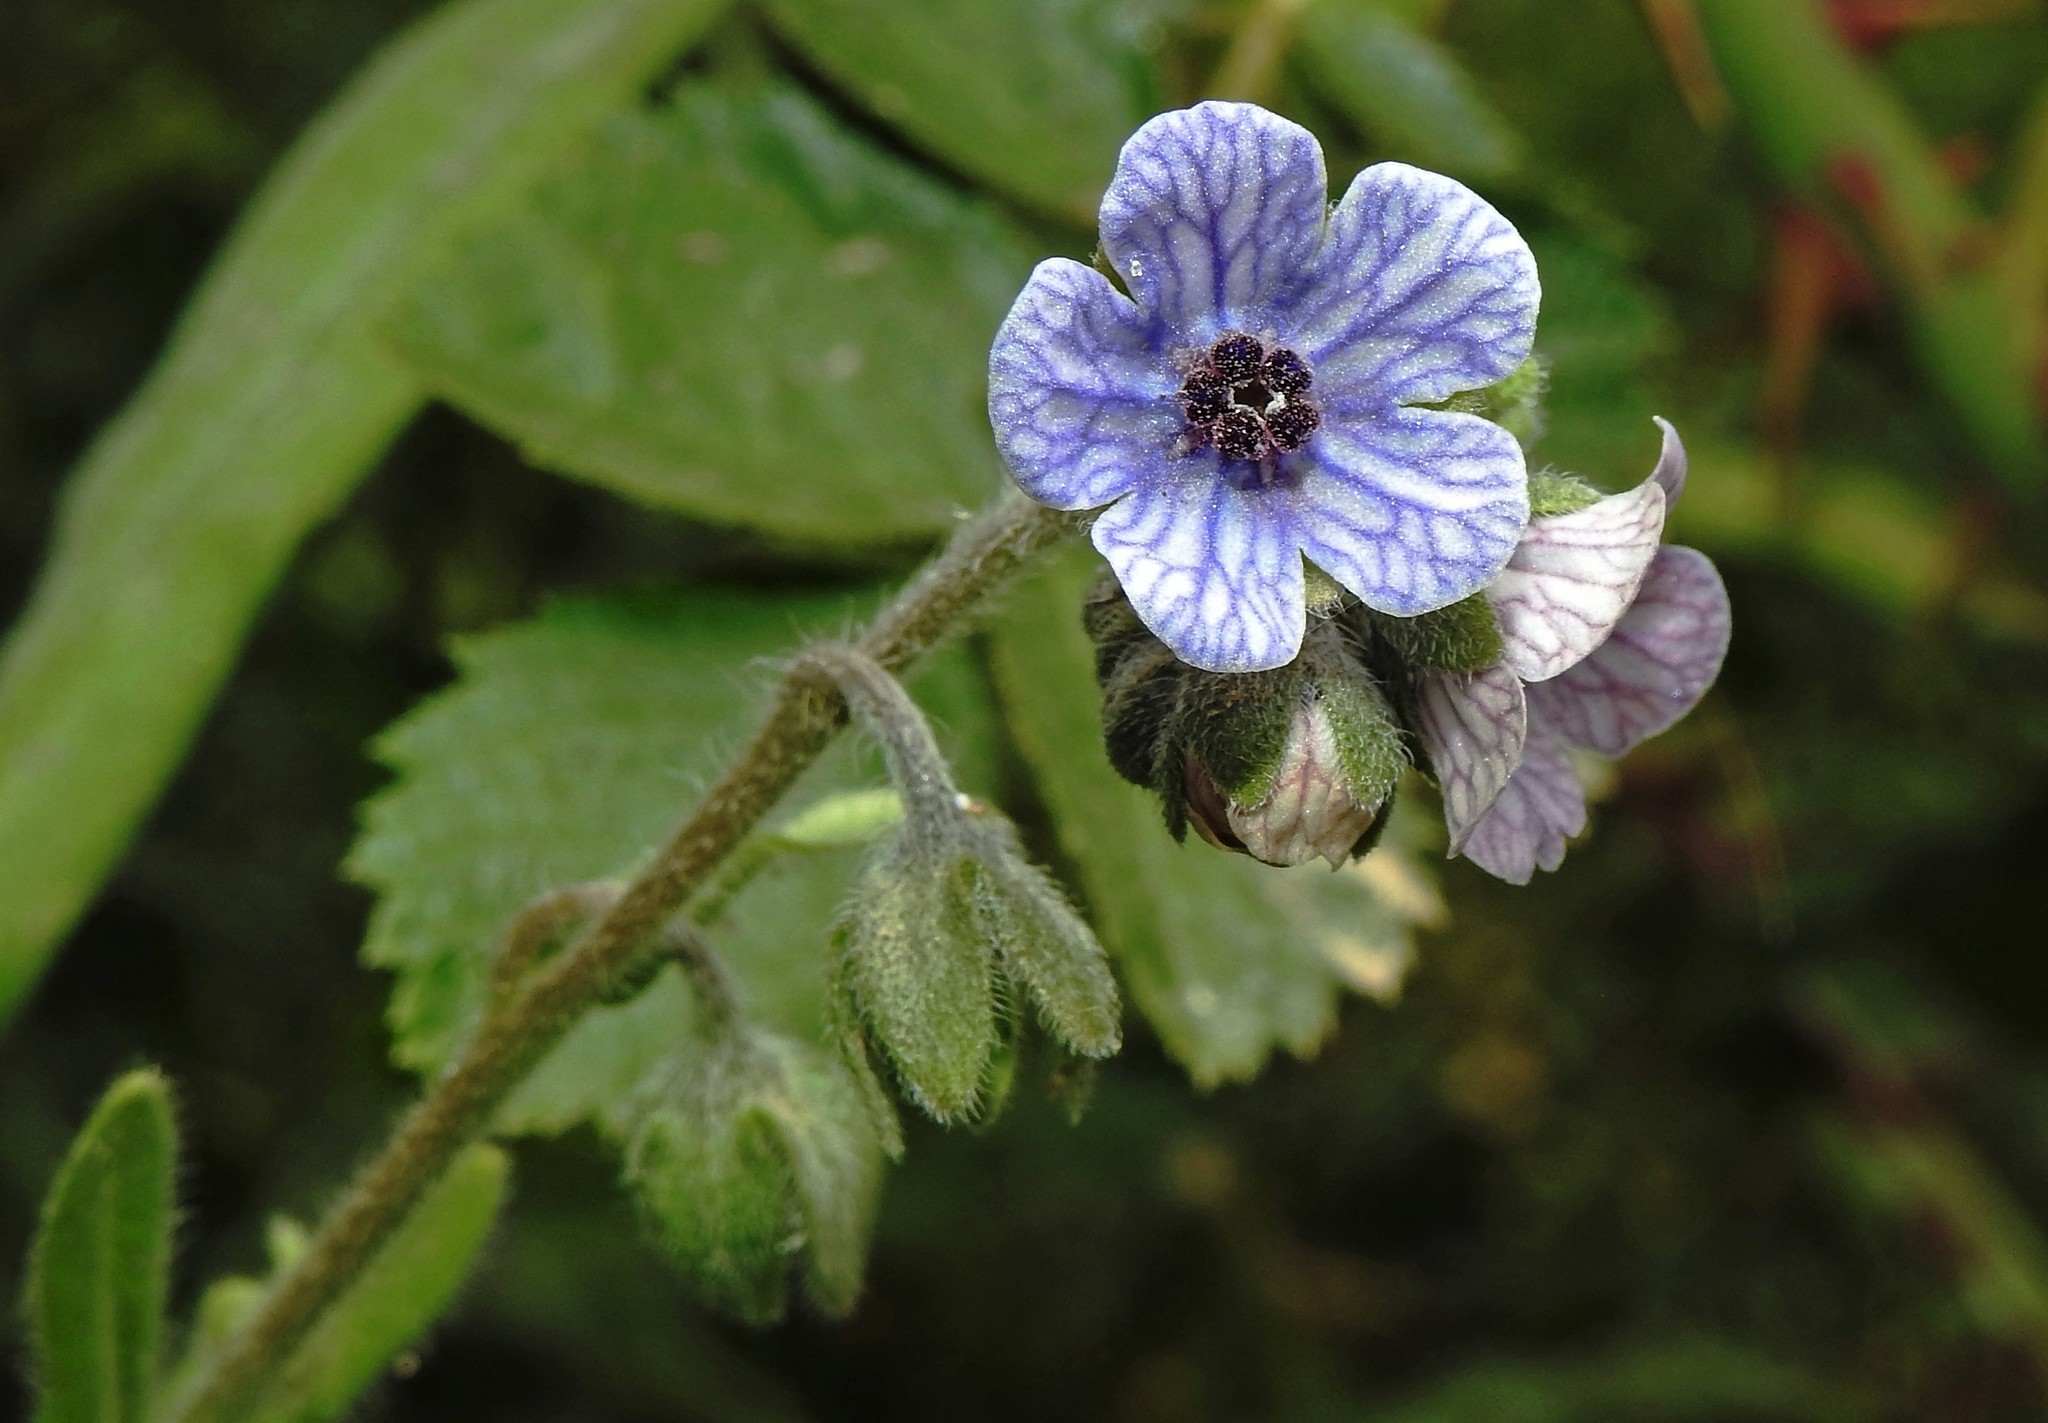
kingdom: Plantae
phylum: Tracheophyta
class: Magnoliopsida
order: Boraginales
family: Boraginaceae
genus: Cynoglossum
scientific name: Cynoglossum creticum
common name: Blue hound's tongue
